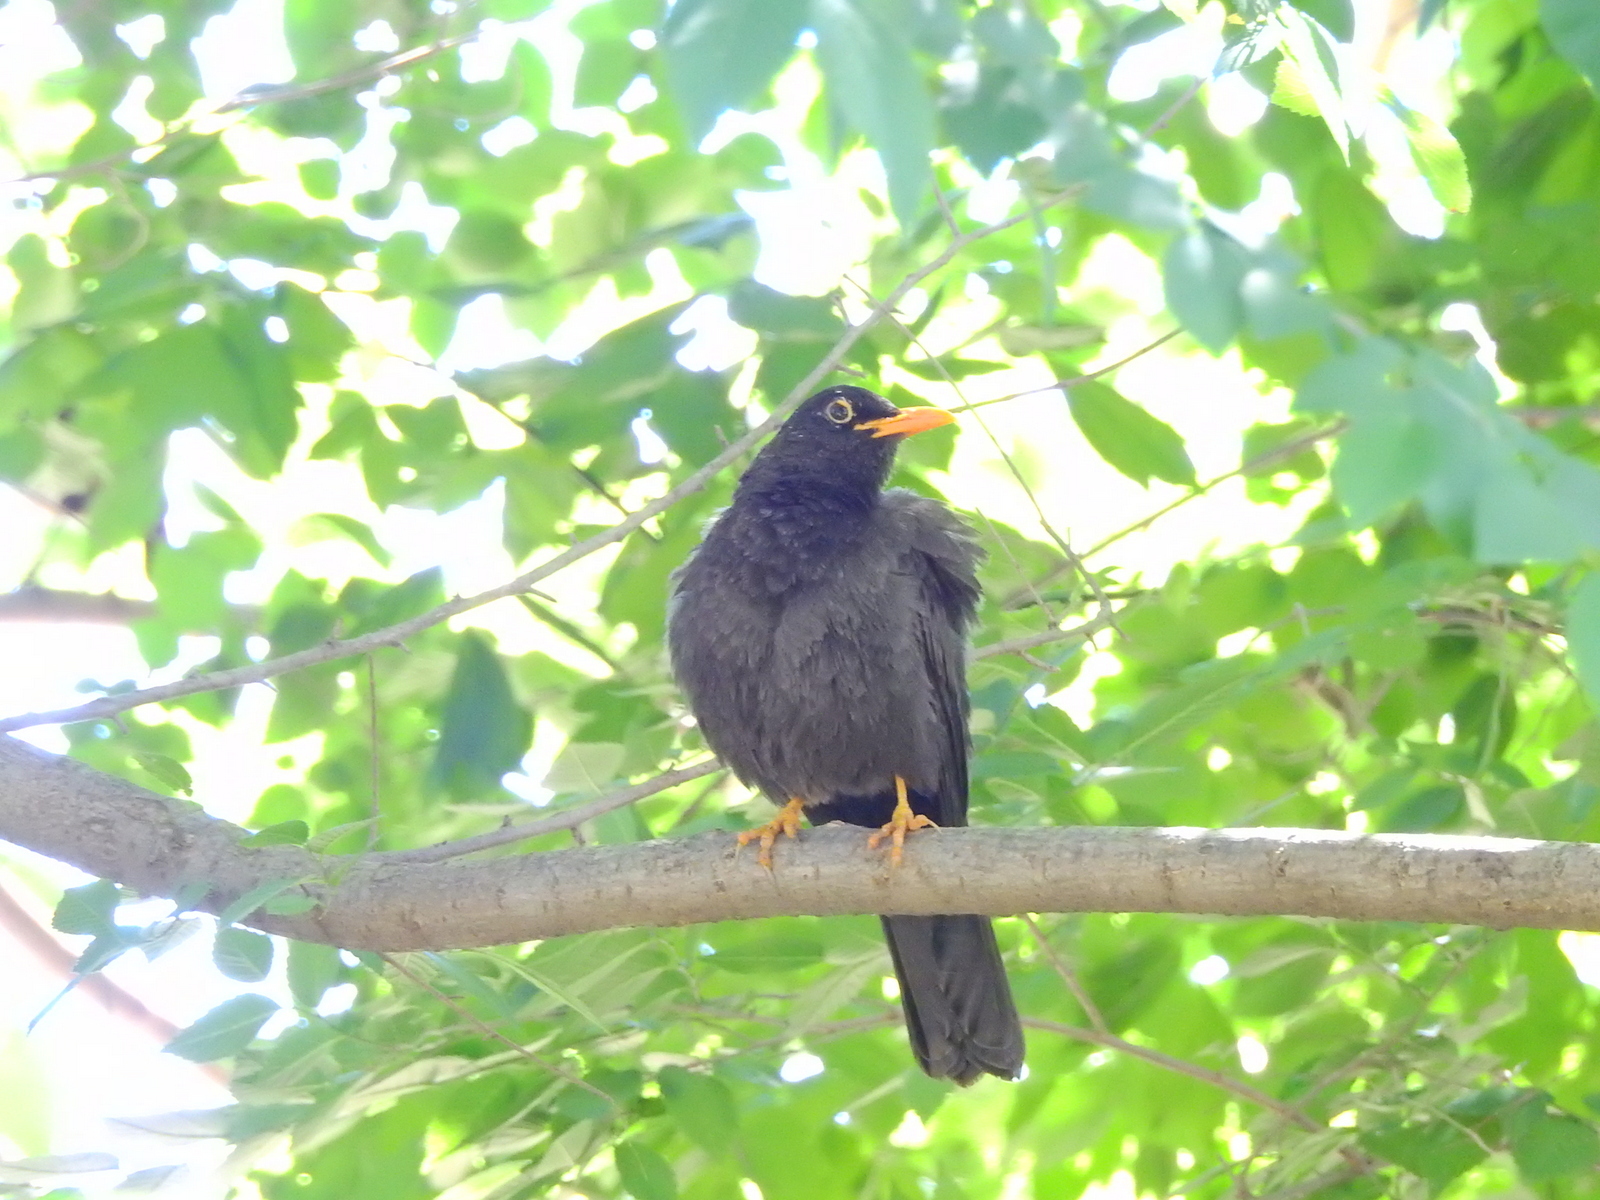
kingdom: Animalia
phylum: Chordata
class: Aves
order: Passeriformes
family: Turdidae
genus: Turdus
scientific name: Turdus chiguanco
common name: Chiguanco thrush
